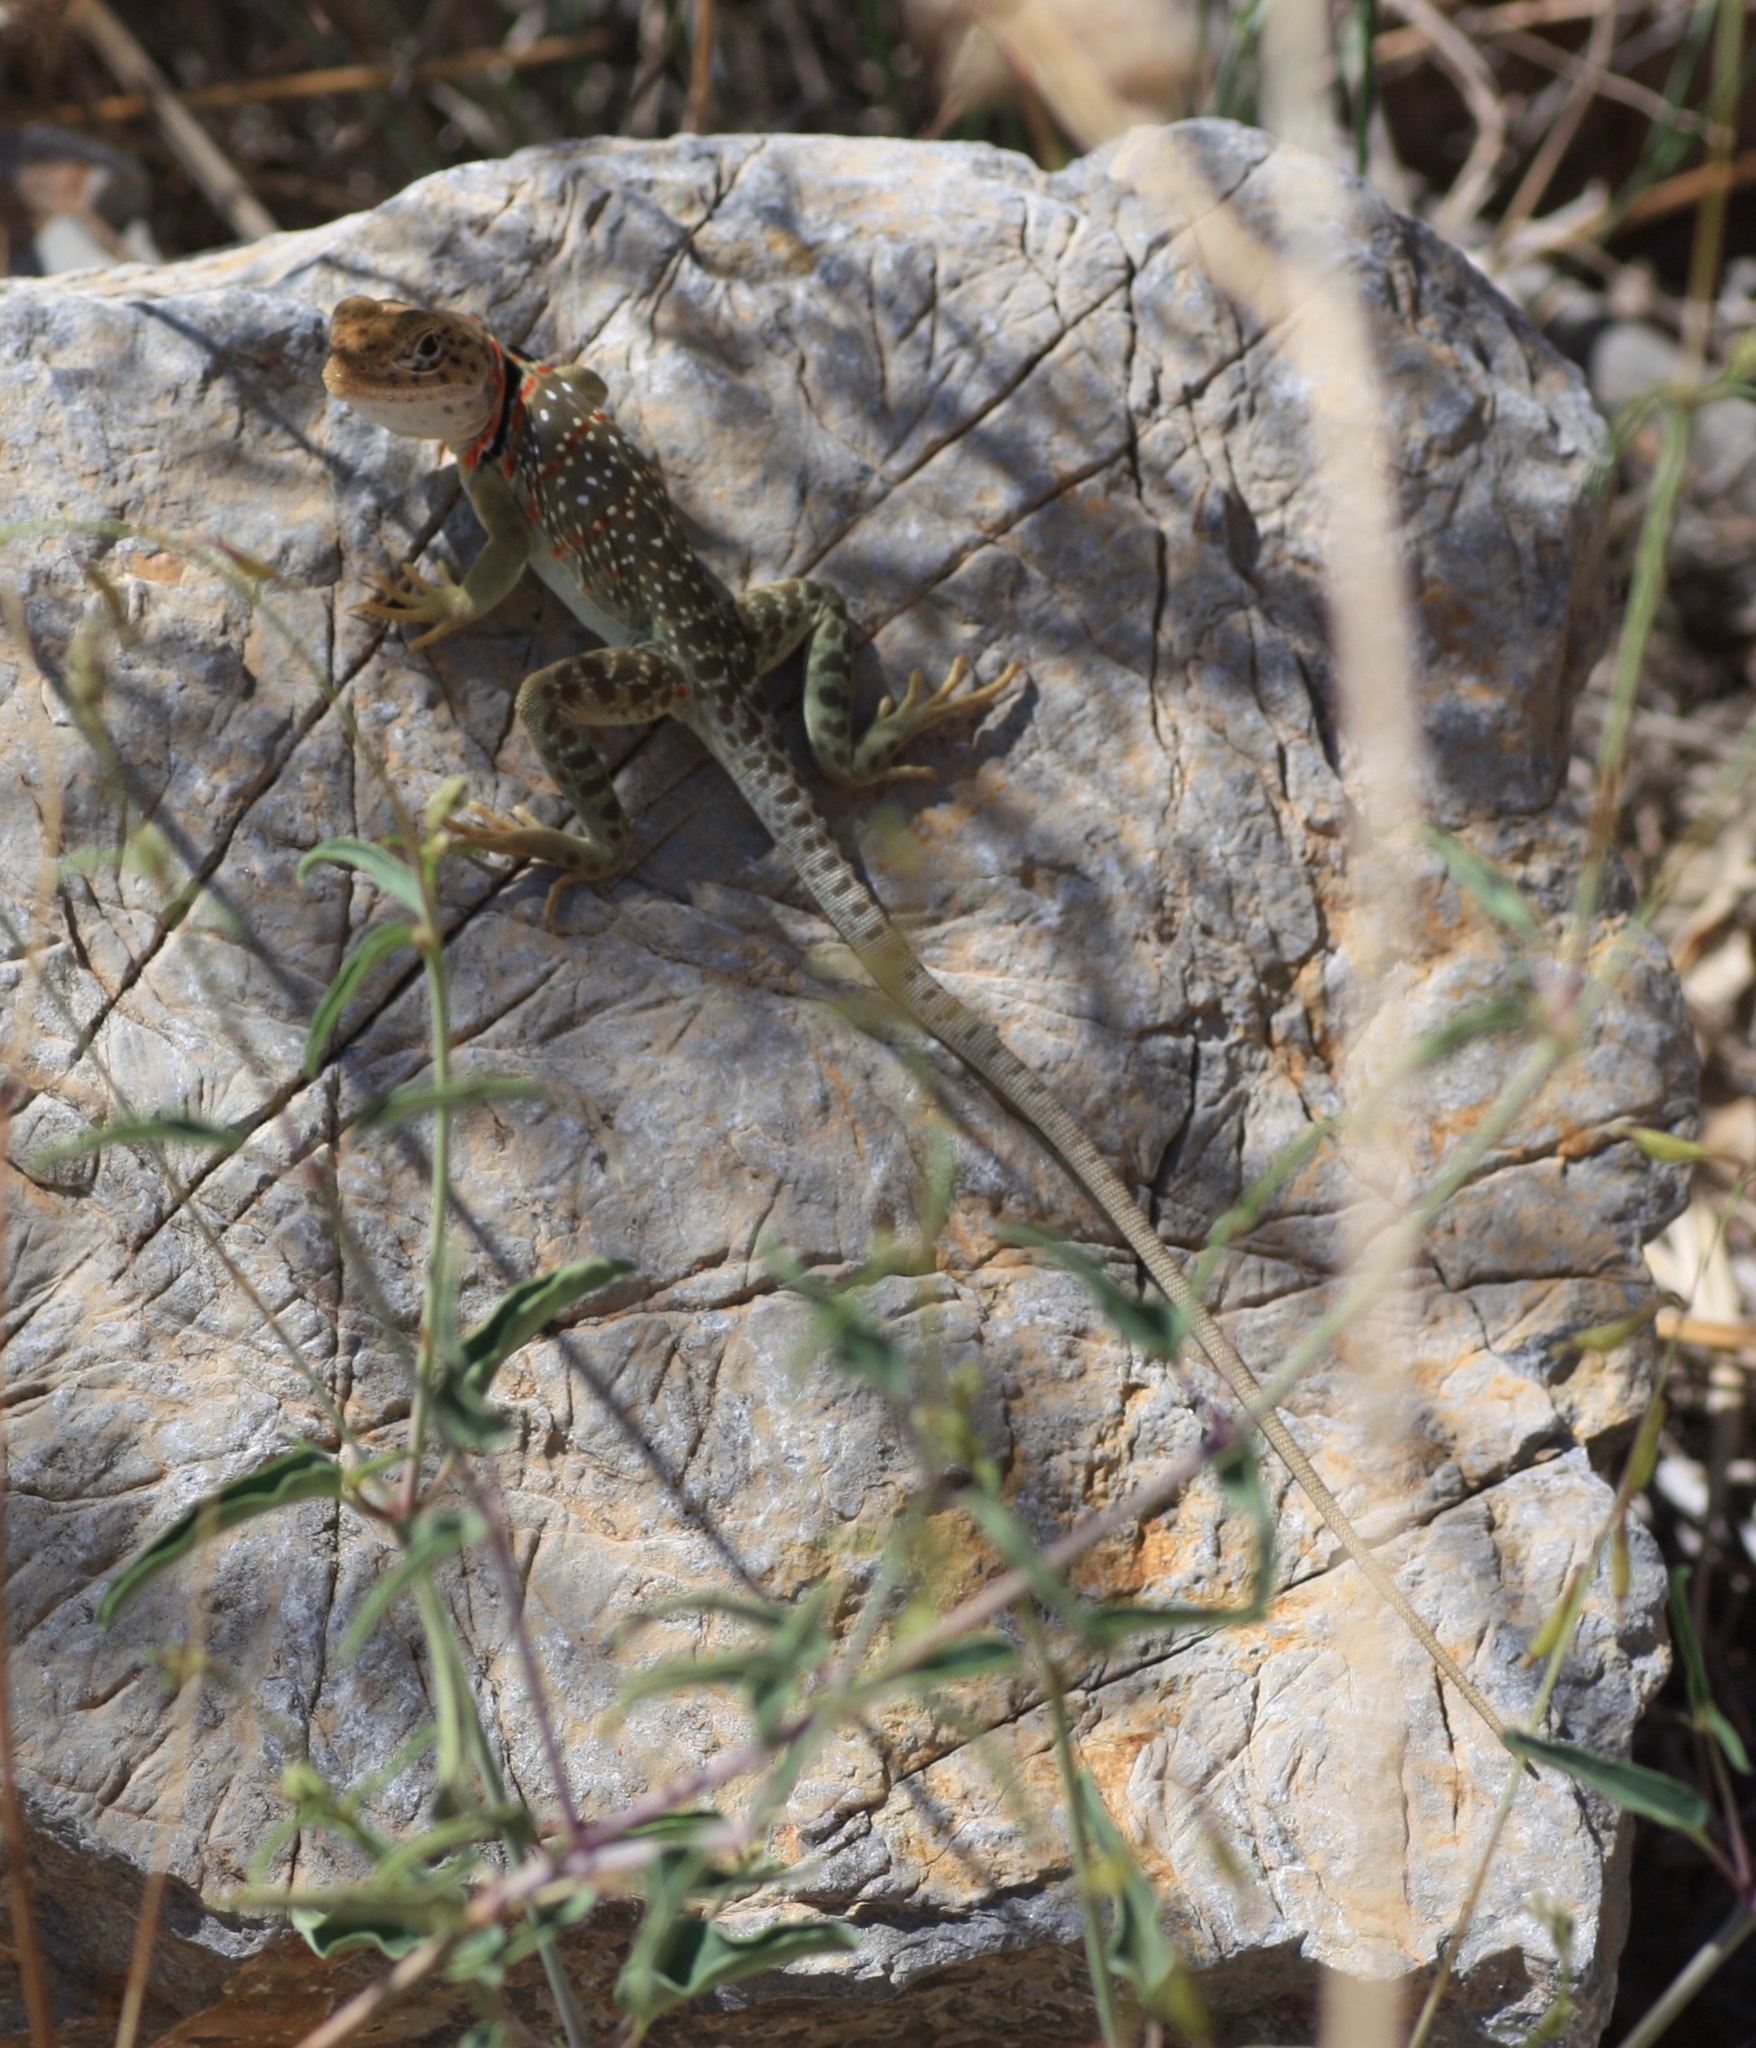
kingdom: Animalia
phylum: Chordata
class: Squamata
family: Crotaphytidae
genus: Crotaphytus
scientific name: Crotaphytus collaris
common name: Collared lizard
